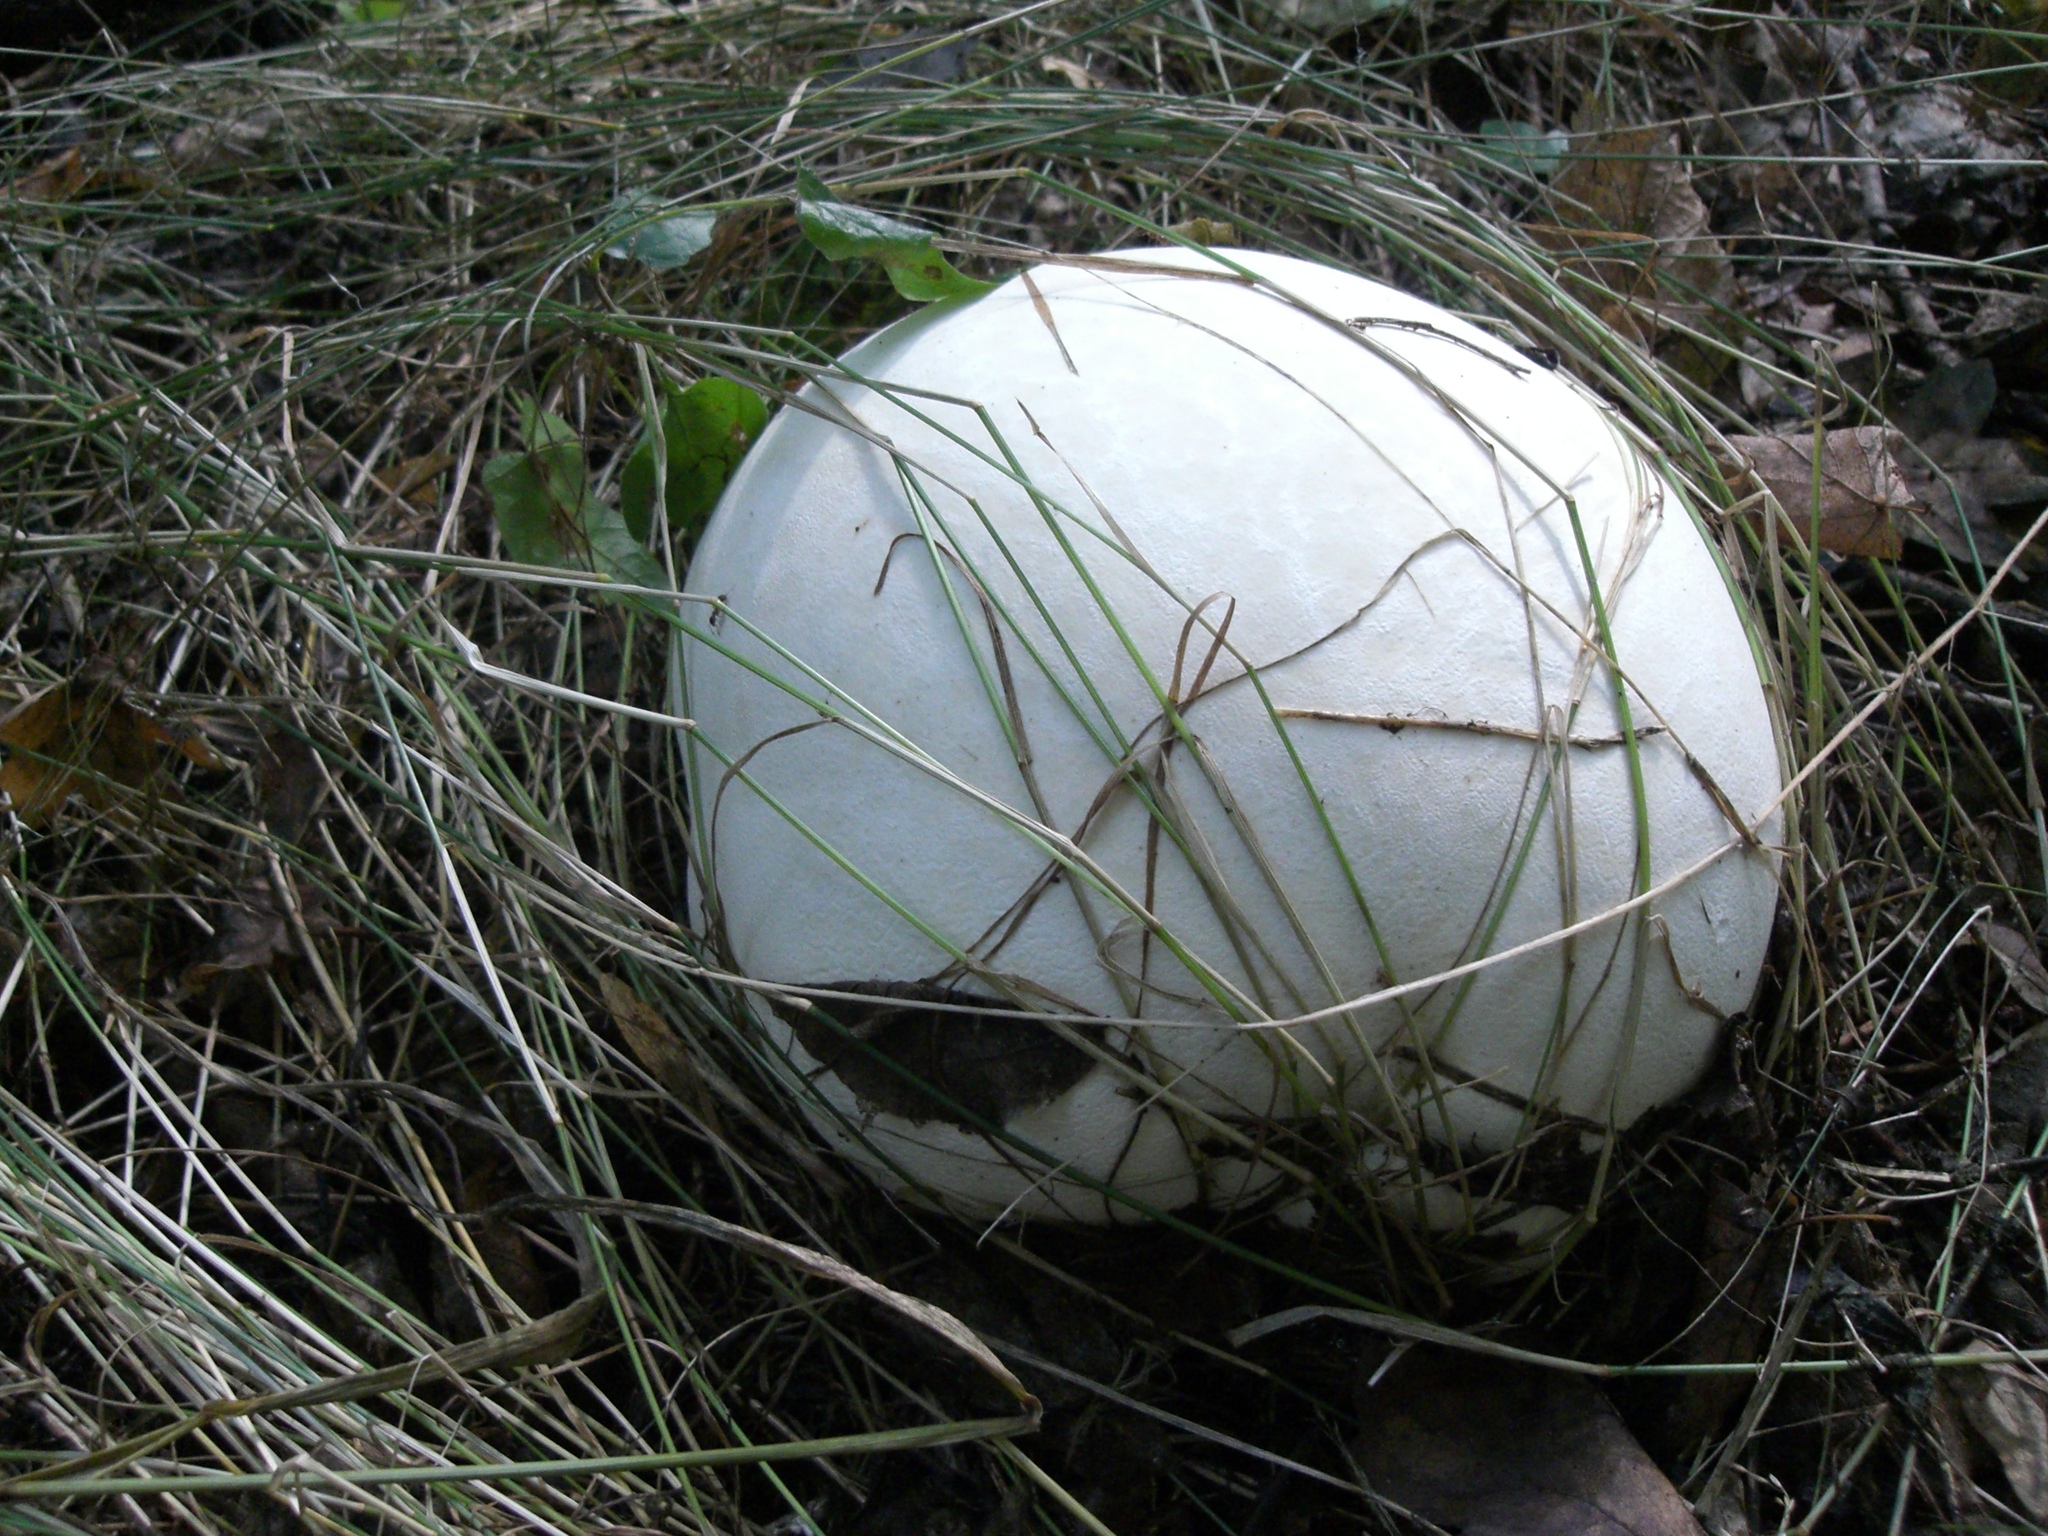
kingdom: Fungi
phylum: Basidiomycota
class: Agaricomycetes
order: Agaricales
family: Lycoperdaceae
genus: Calvatia
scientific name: Calvatia gigantea
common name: Giant puffball
